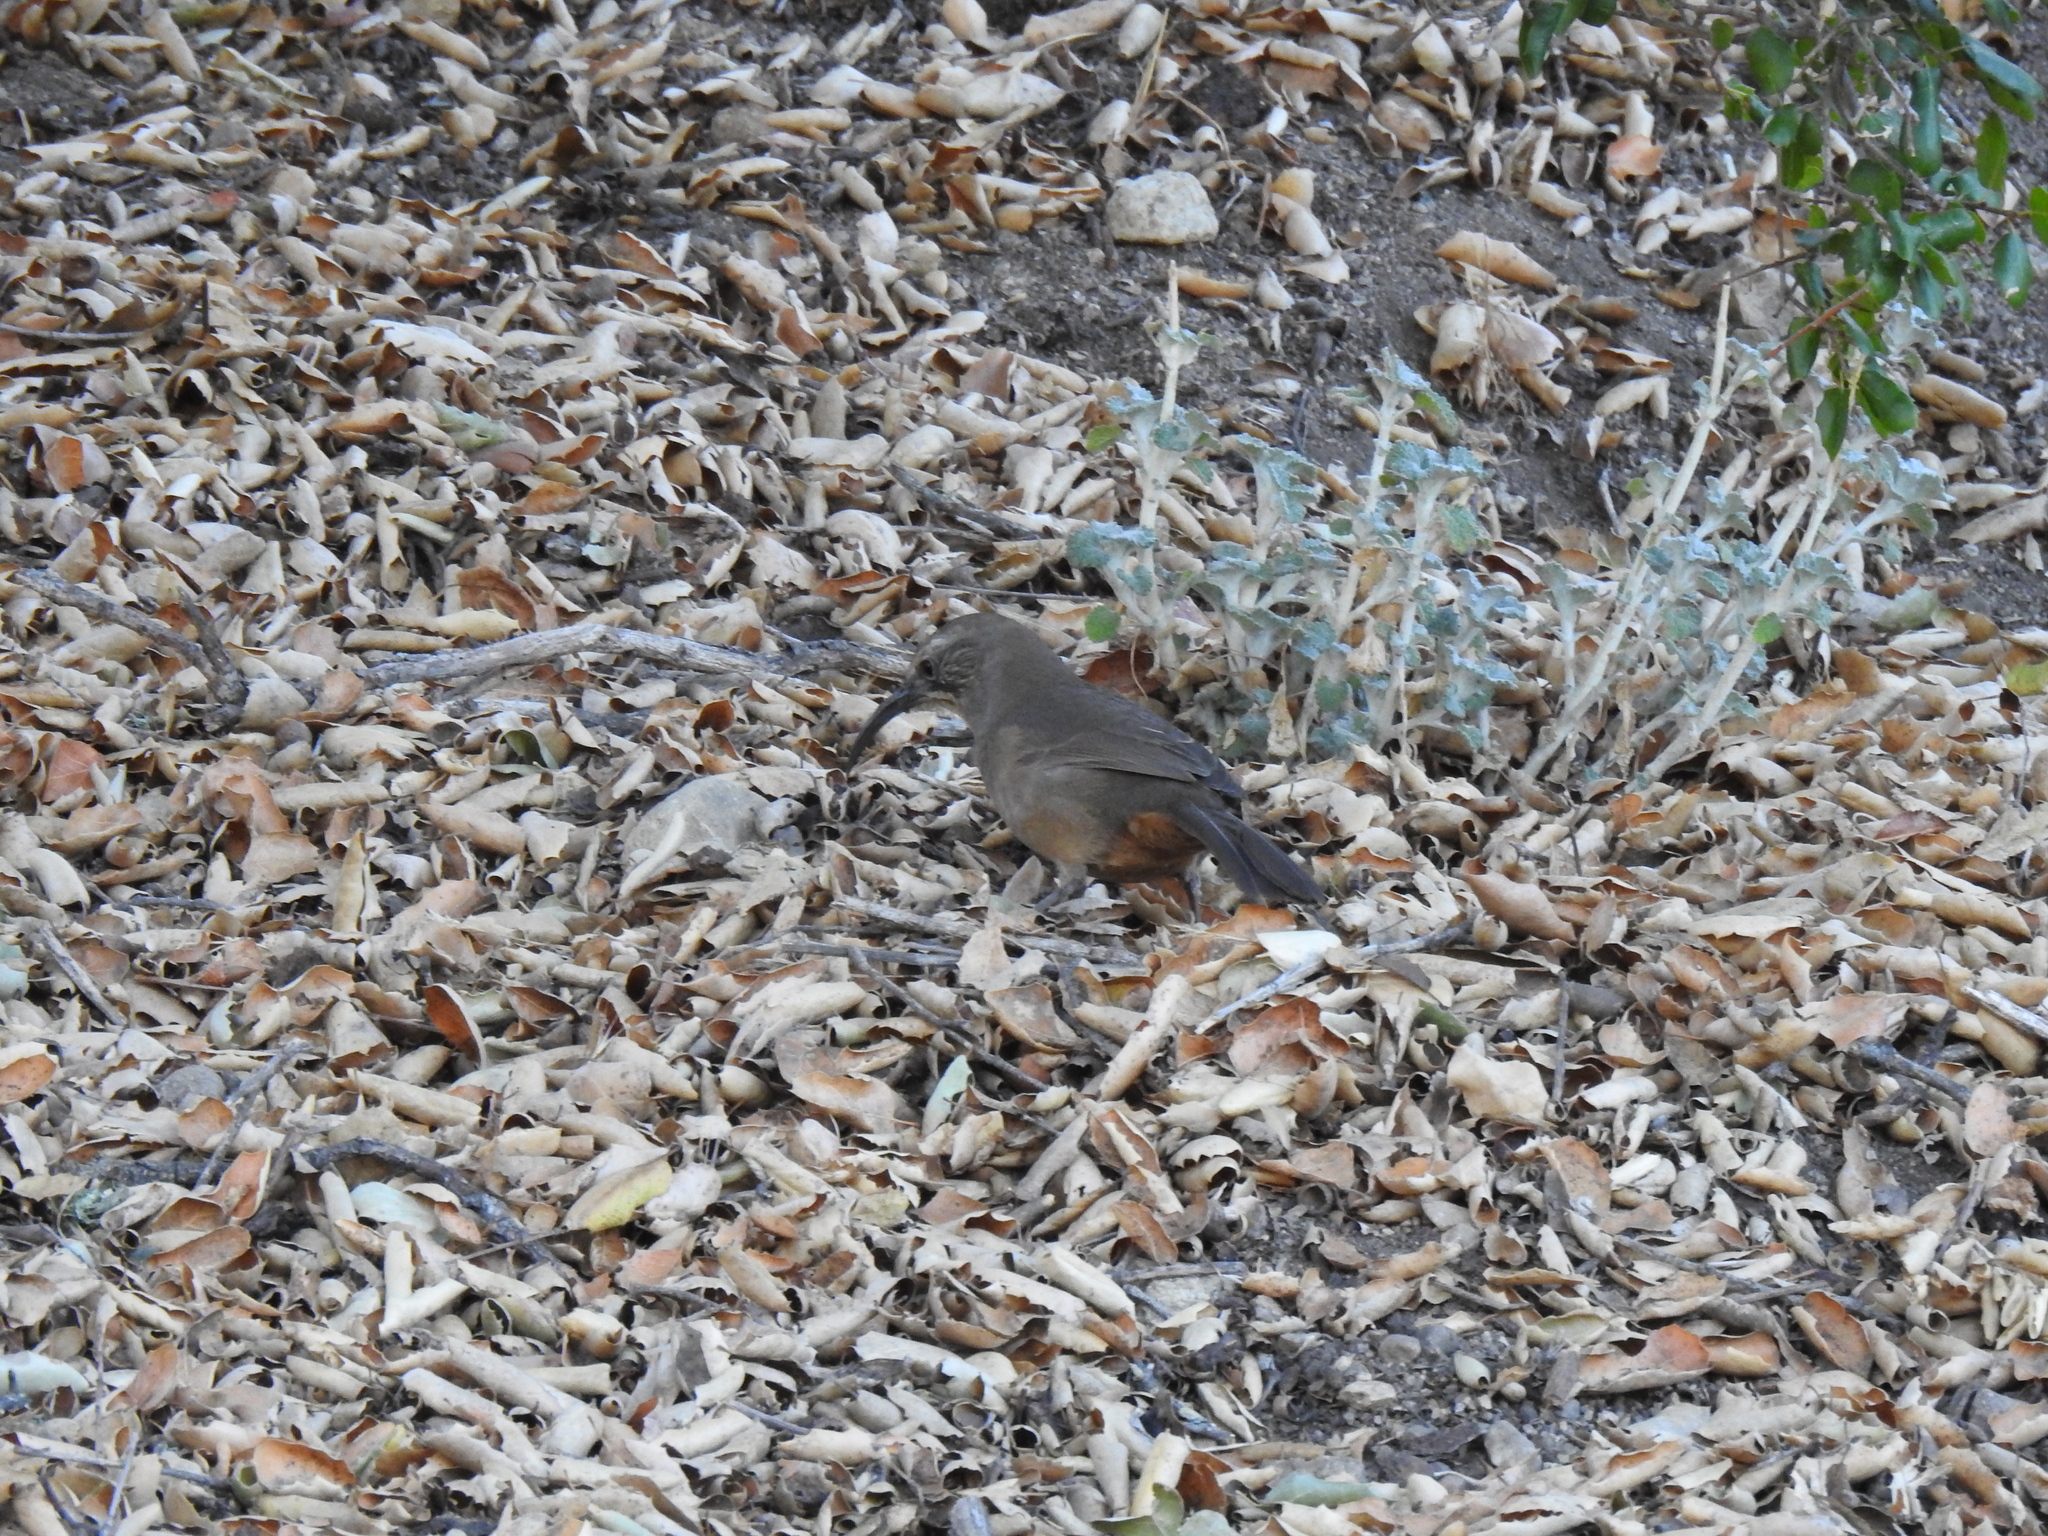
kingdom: Animalia
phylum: Chordata
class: Aves
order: Passeriformes
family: Mimidae
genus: Toxostoma
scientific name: Toxostoma redivivum
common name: California thrasher
